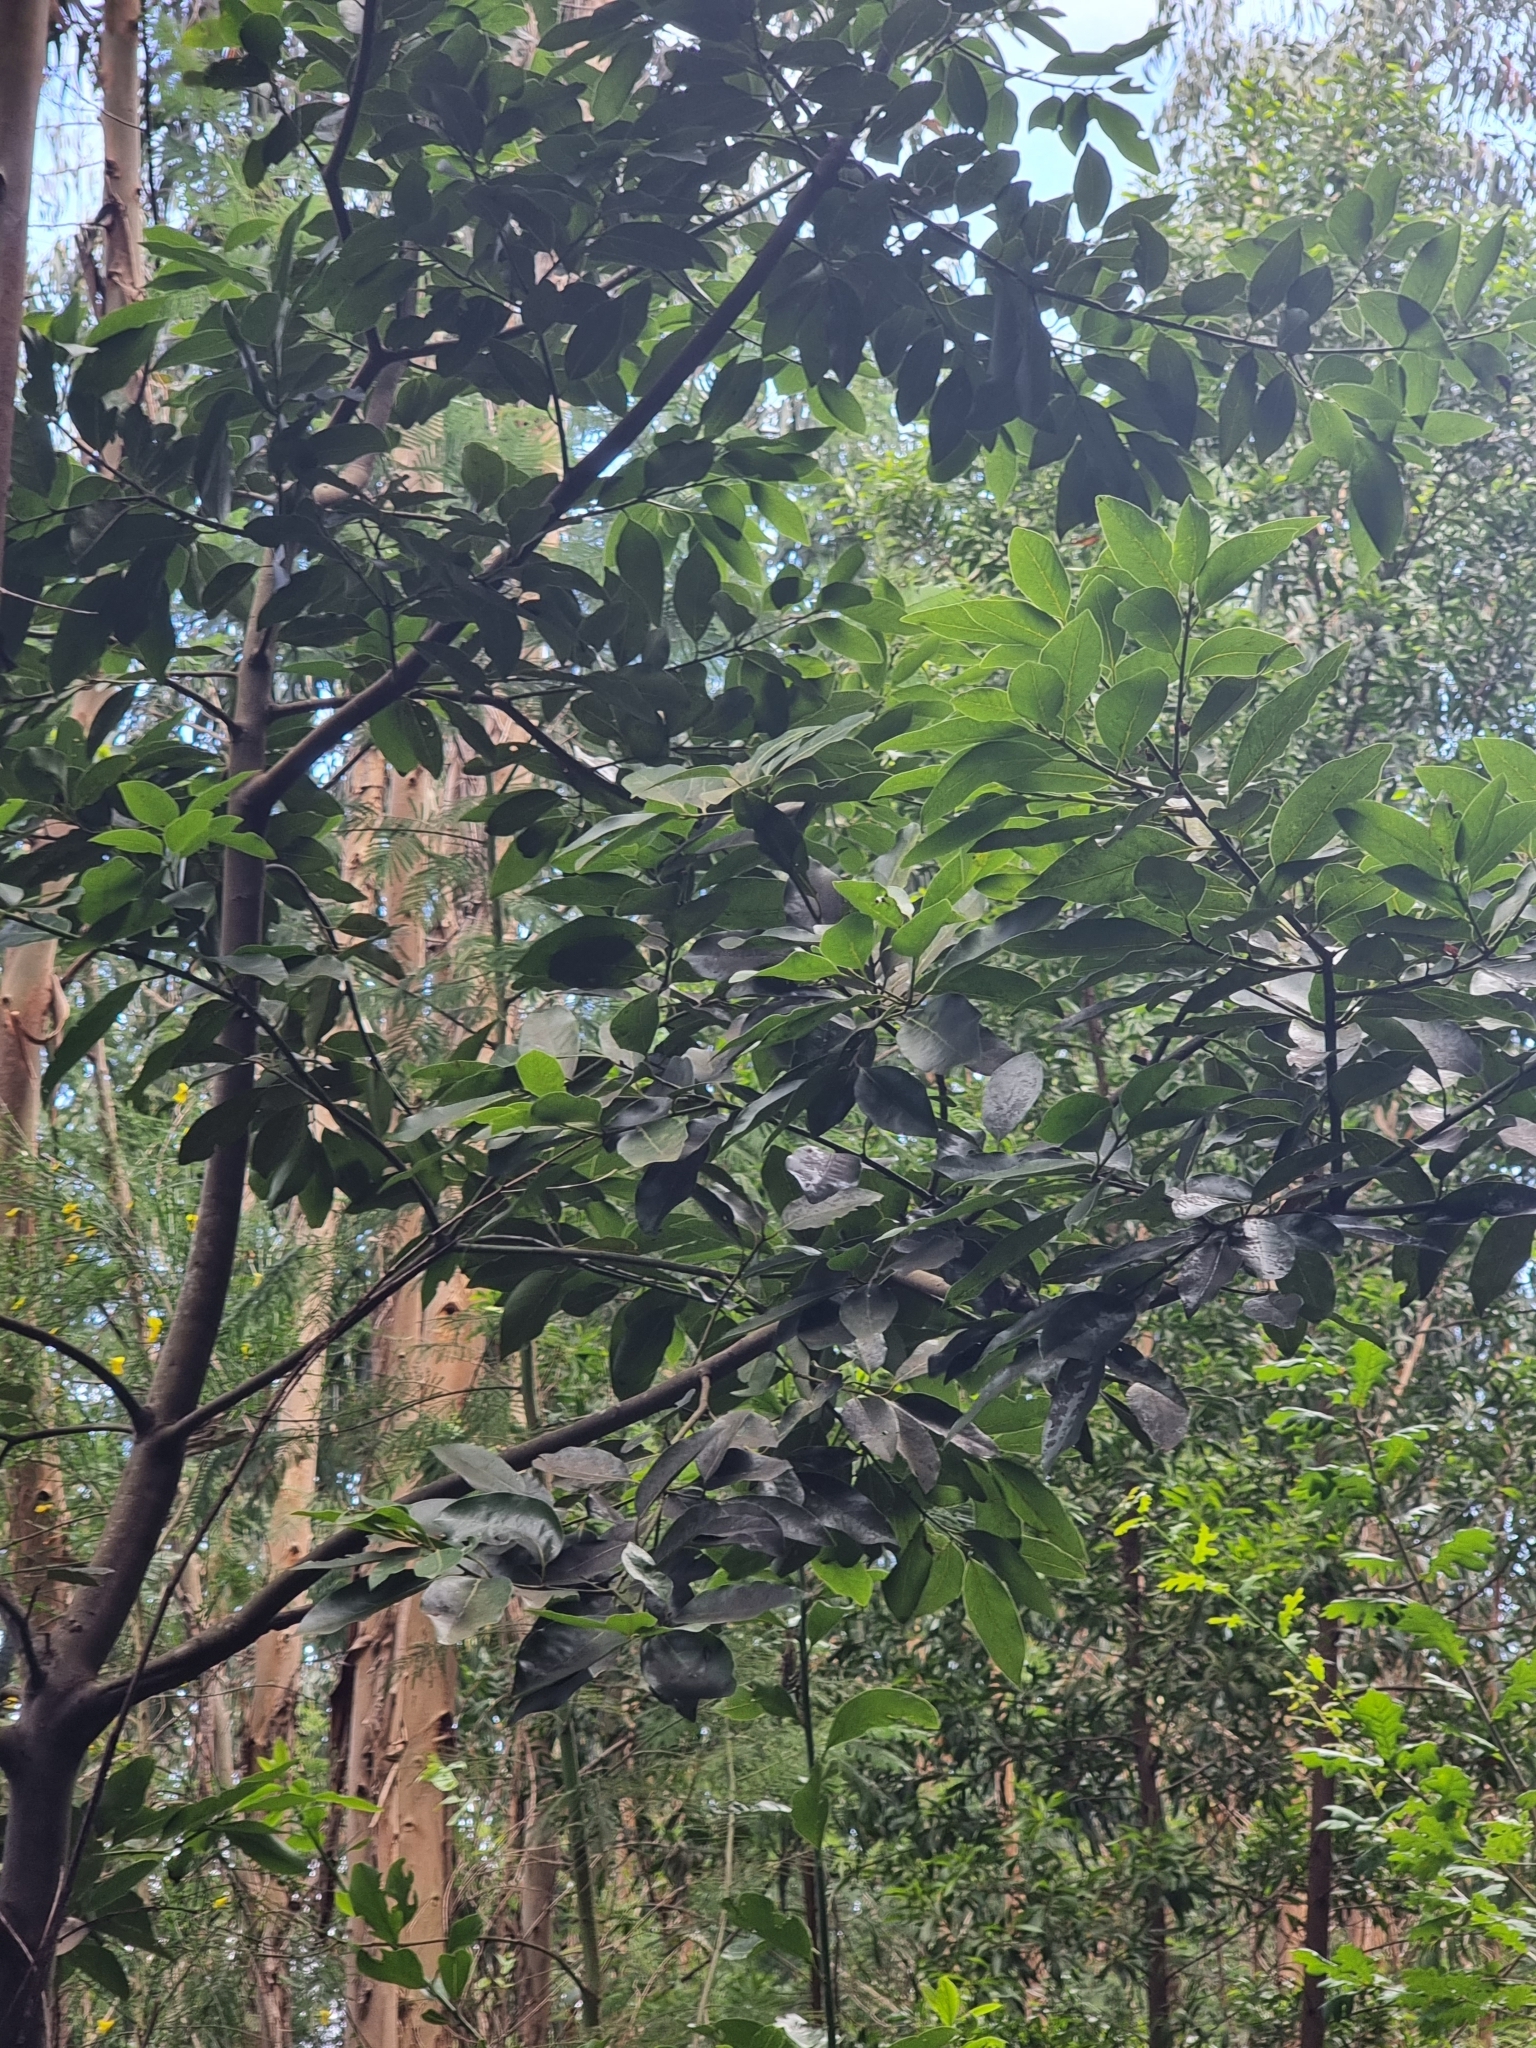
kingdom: Plantae
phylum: Tracheophyta
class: Magnoliopsida
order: Laurales
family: Lauraceae
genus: Laurus
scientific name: Laurus novocanariensis
